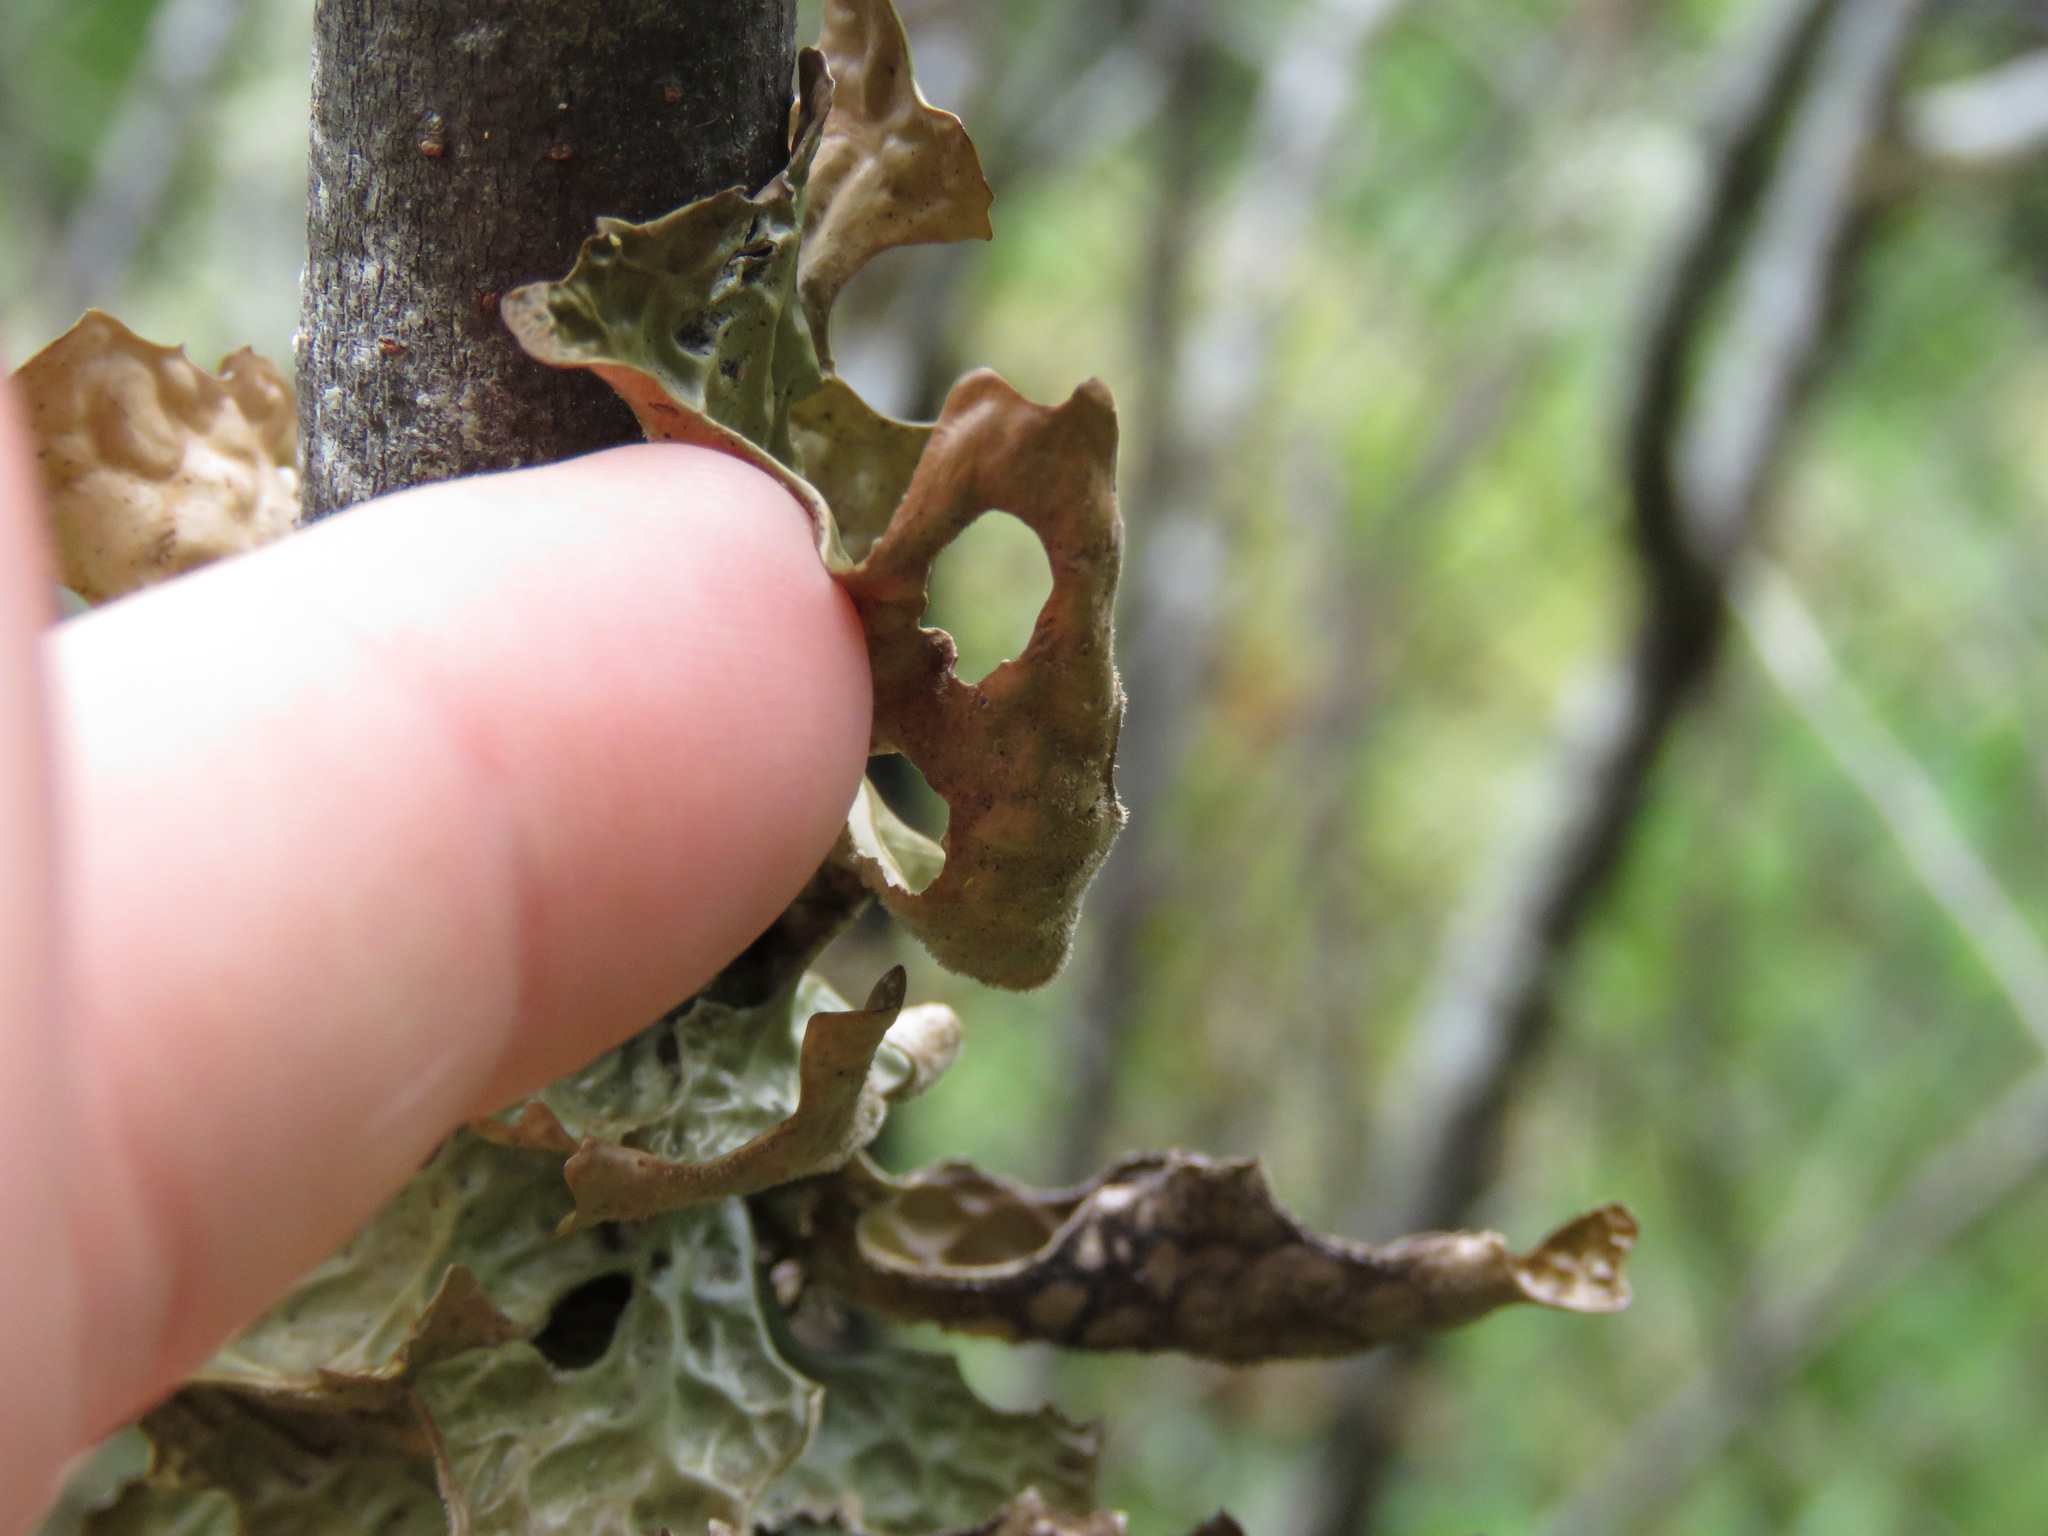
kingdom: Fungi
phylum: Ascomycota
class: Lecanoromycetes
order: Peltigerales
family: Lobariaceae
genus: Lobaria
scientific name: Lobaria pulmonaria
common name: Lungwort
